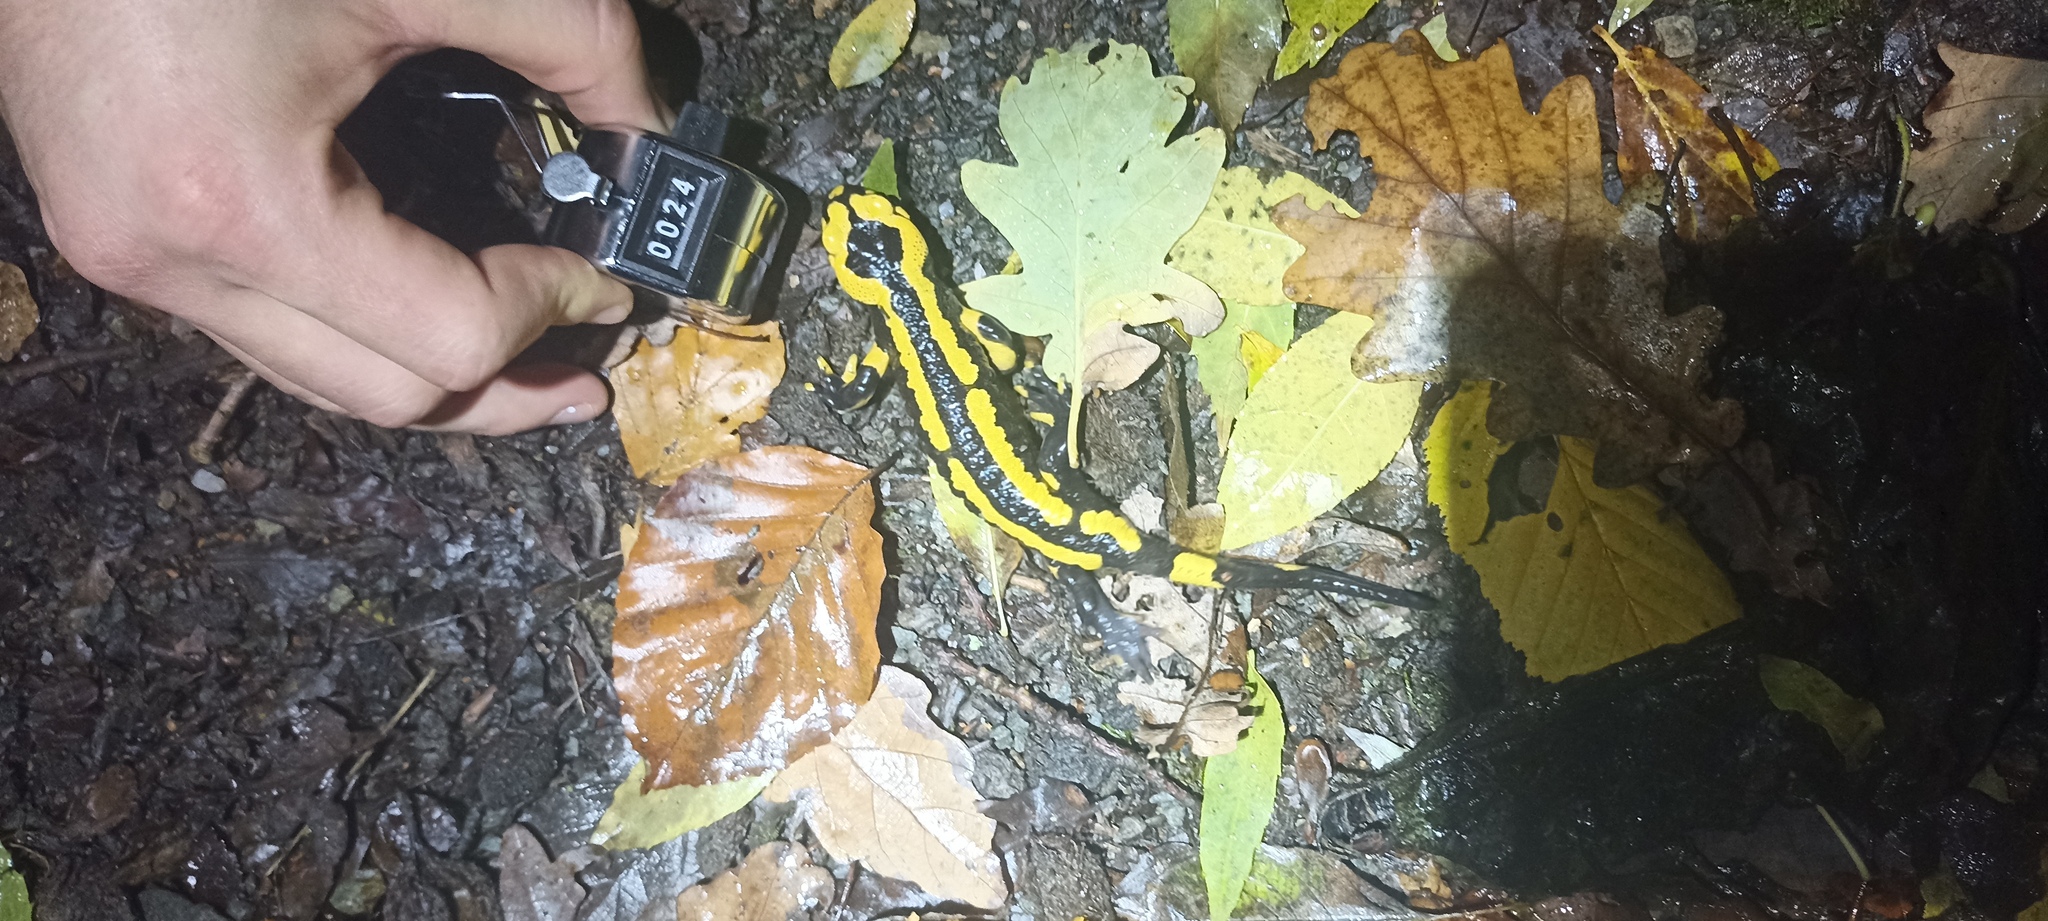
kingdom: Animalia
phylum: Chordata
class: Amphibia
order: Caudata
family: Salamandridae
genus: Salamandra
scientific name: Salamandra salamandra
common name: Fire salamander
